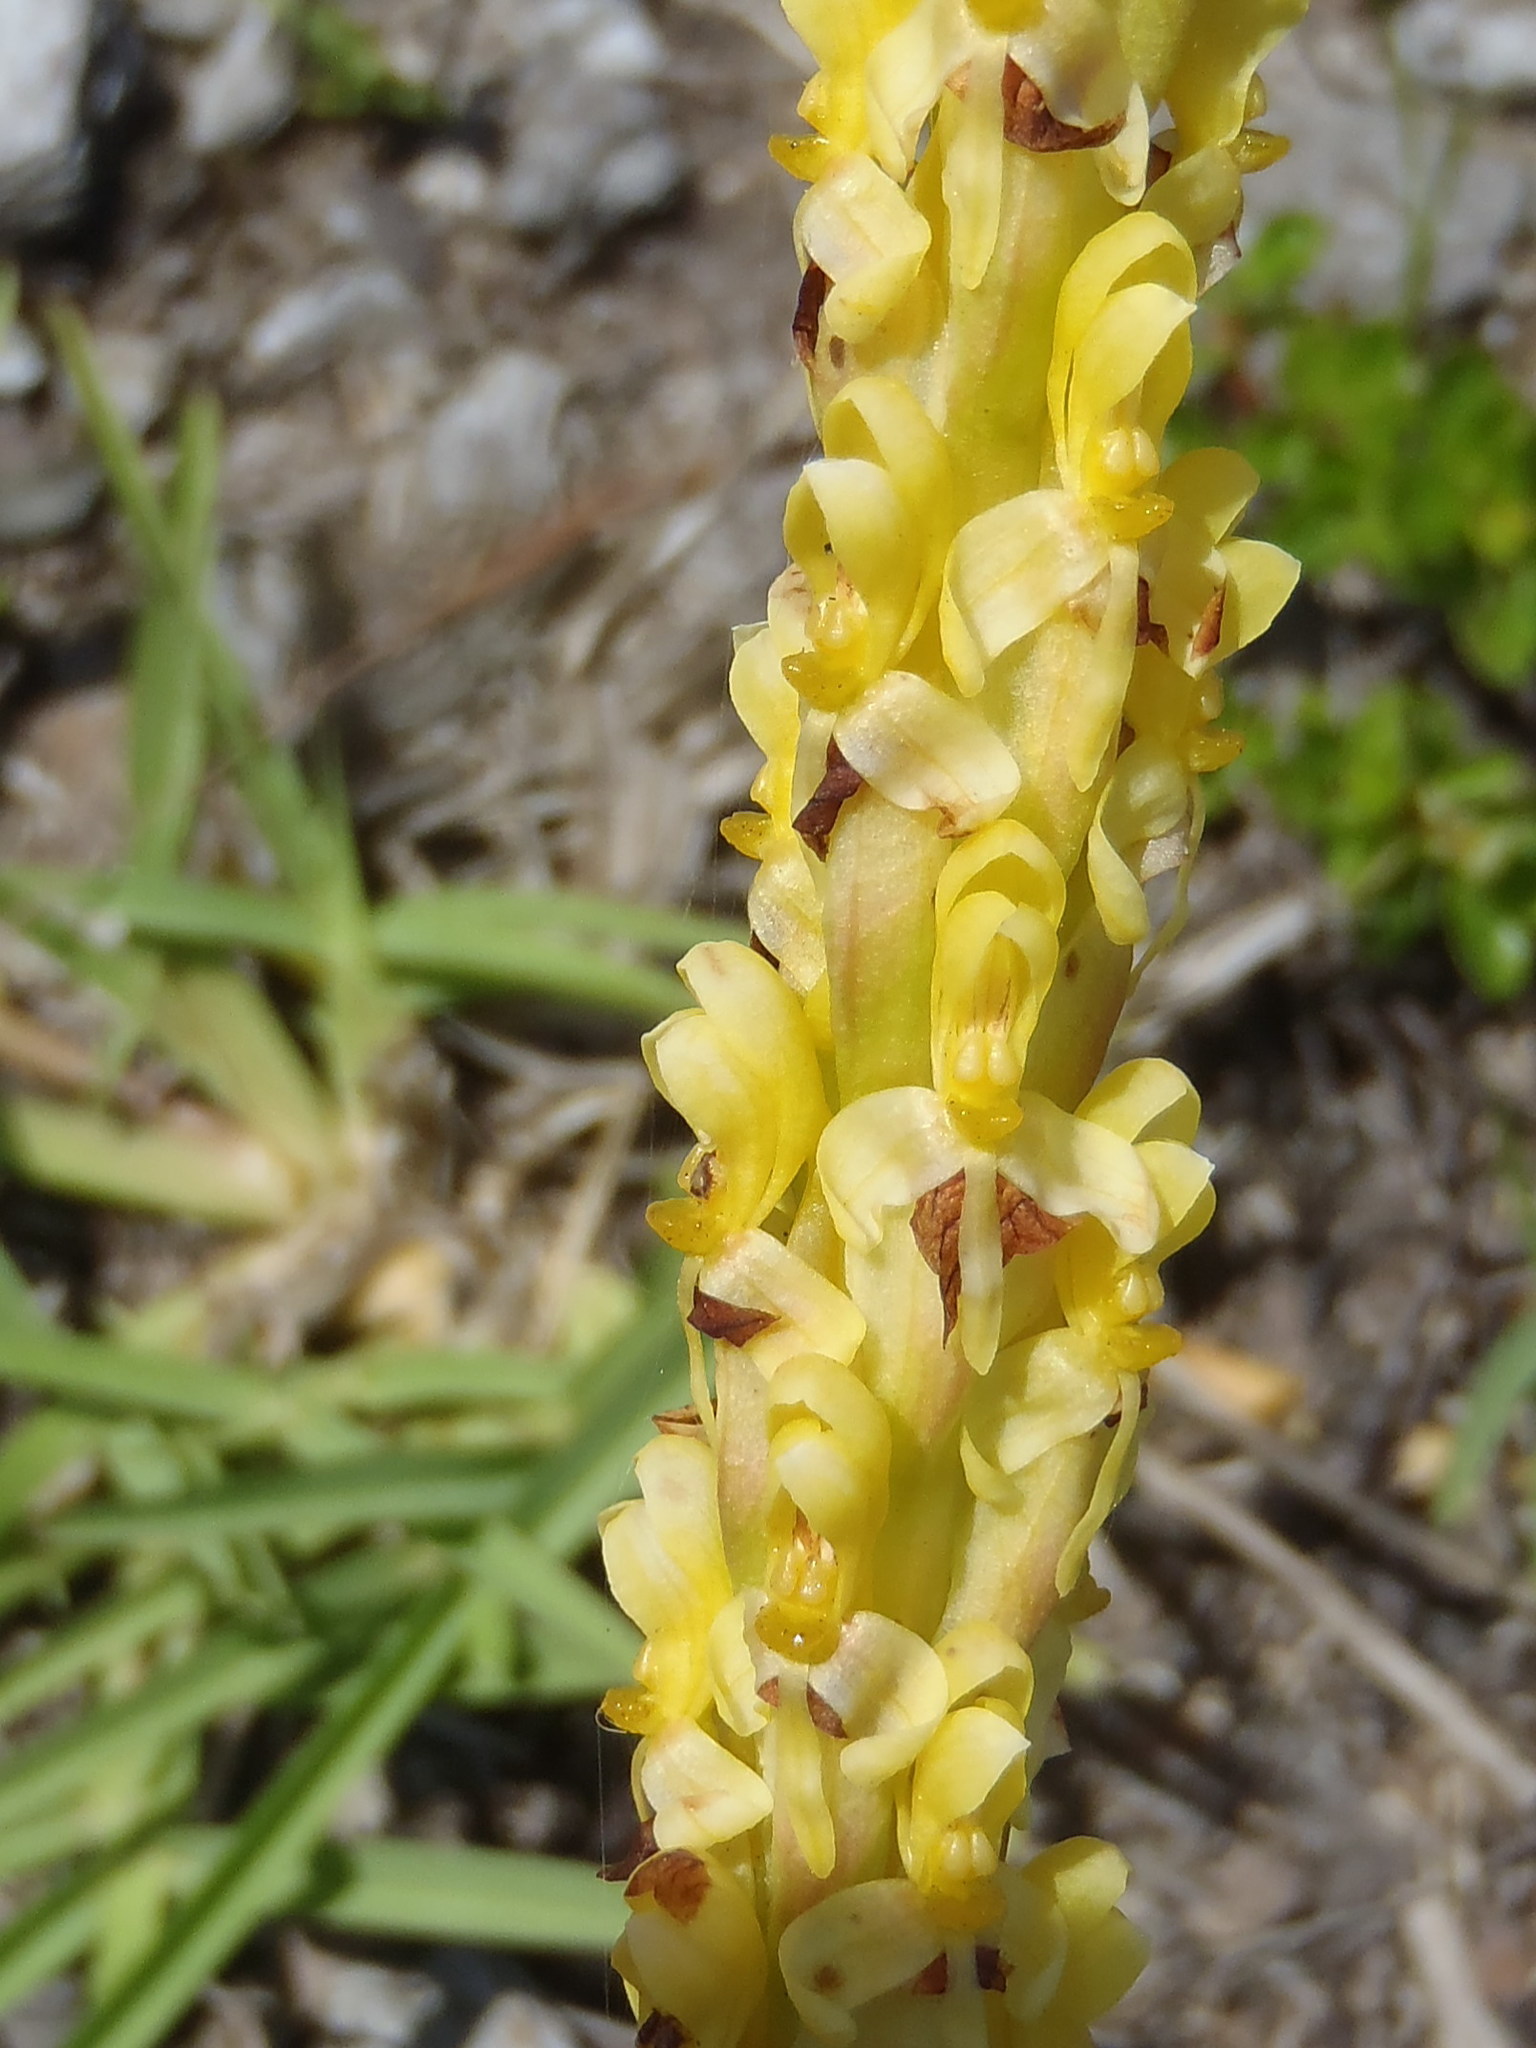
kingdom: Plantae
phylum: Tracheophyta
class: Liliopsida
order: Asparagales
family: Orchidaceae
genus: Disa
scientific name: Disa chrysostachya
